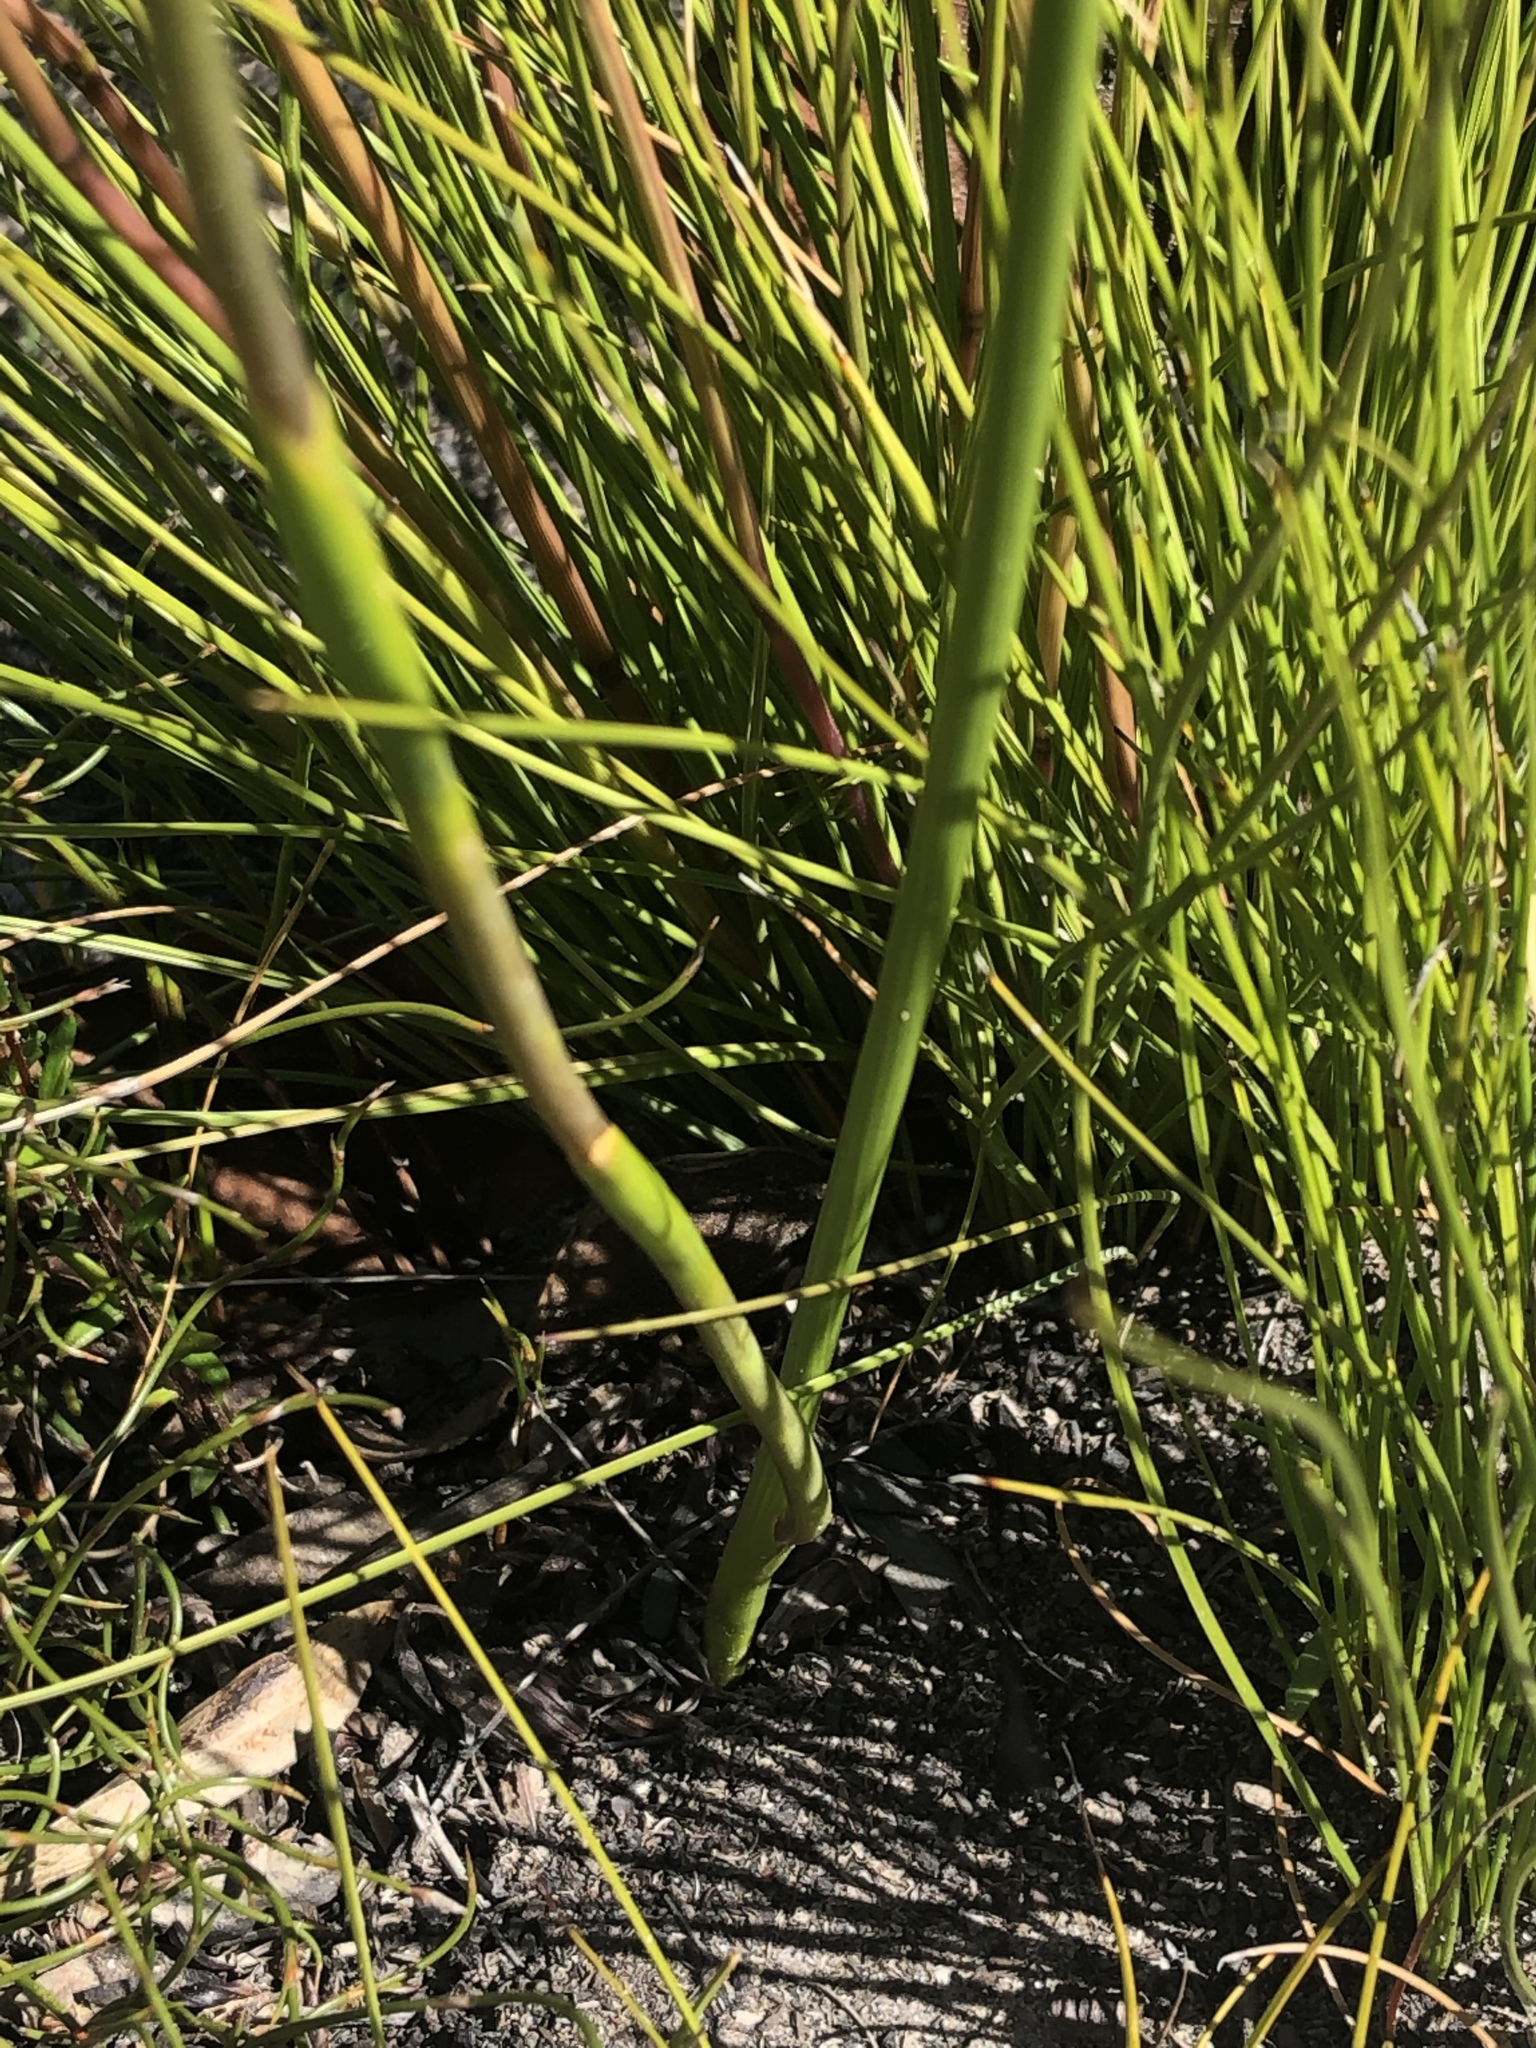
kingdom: Plantae
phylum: Tracheophyta
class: Liliopsida
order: Asparagales
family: Iridaceae
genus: Moraea
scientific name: Moraea anomala
